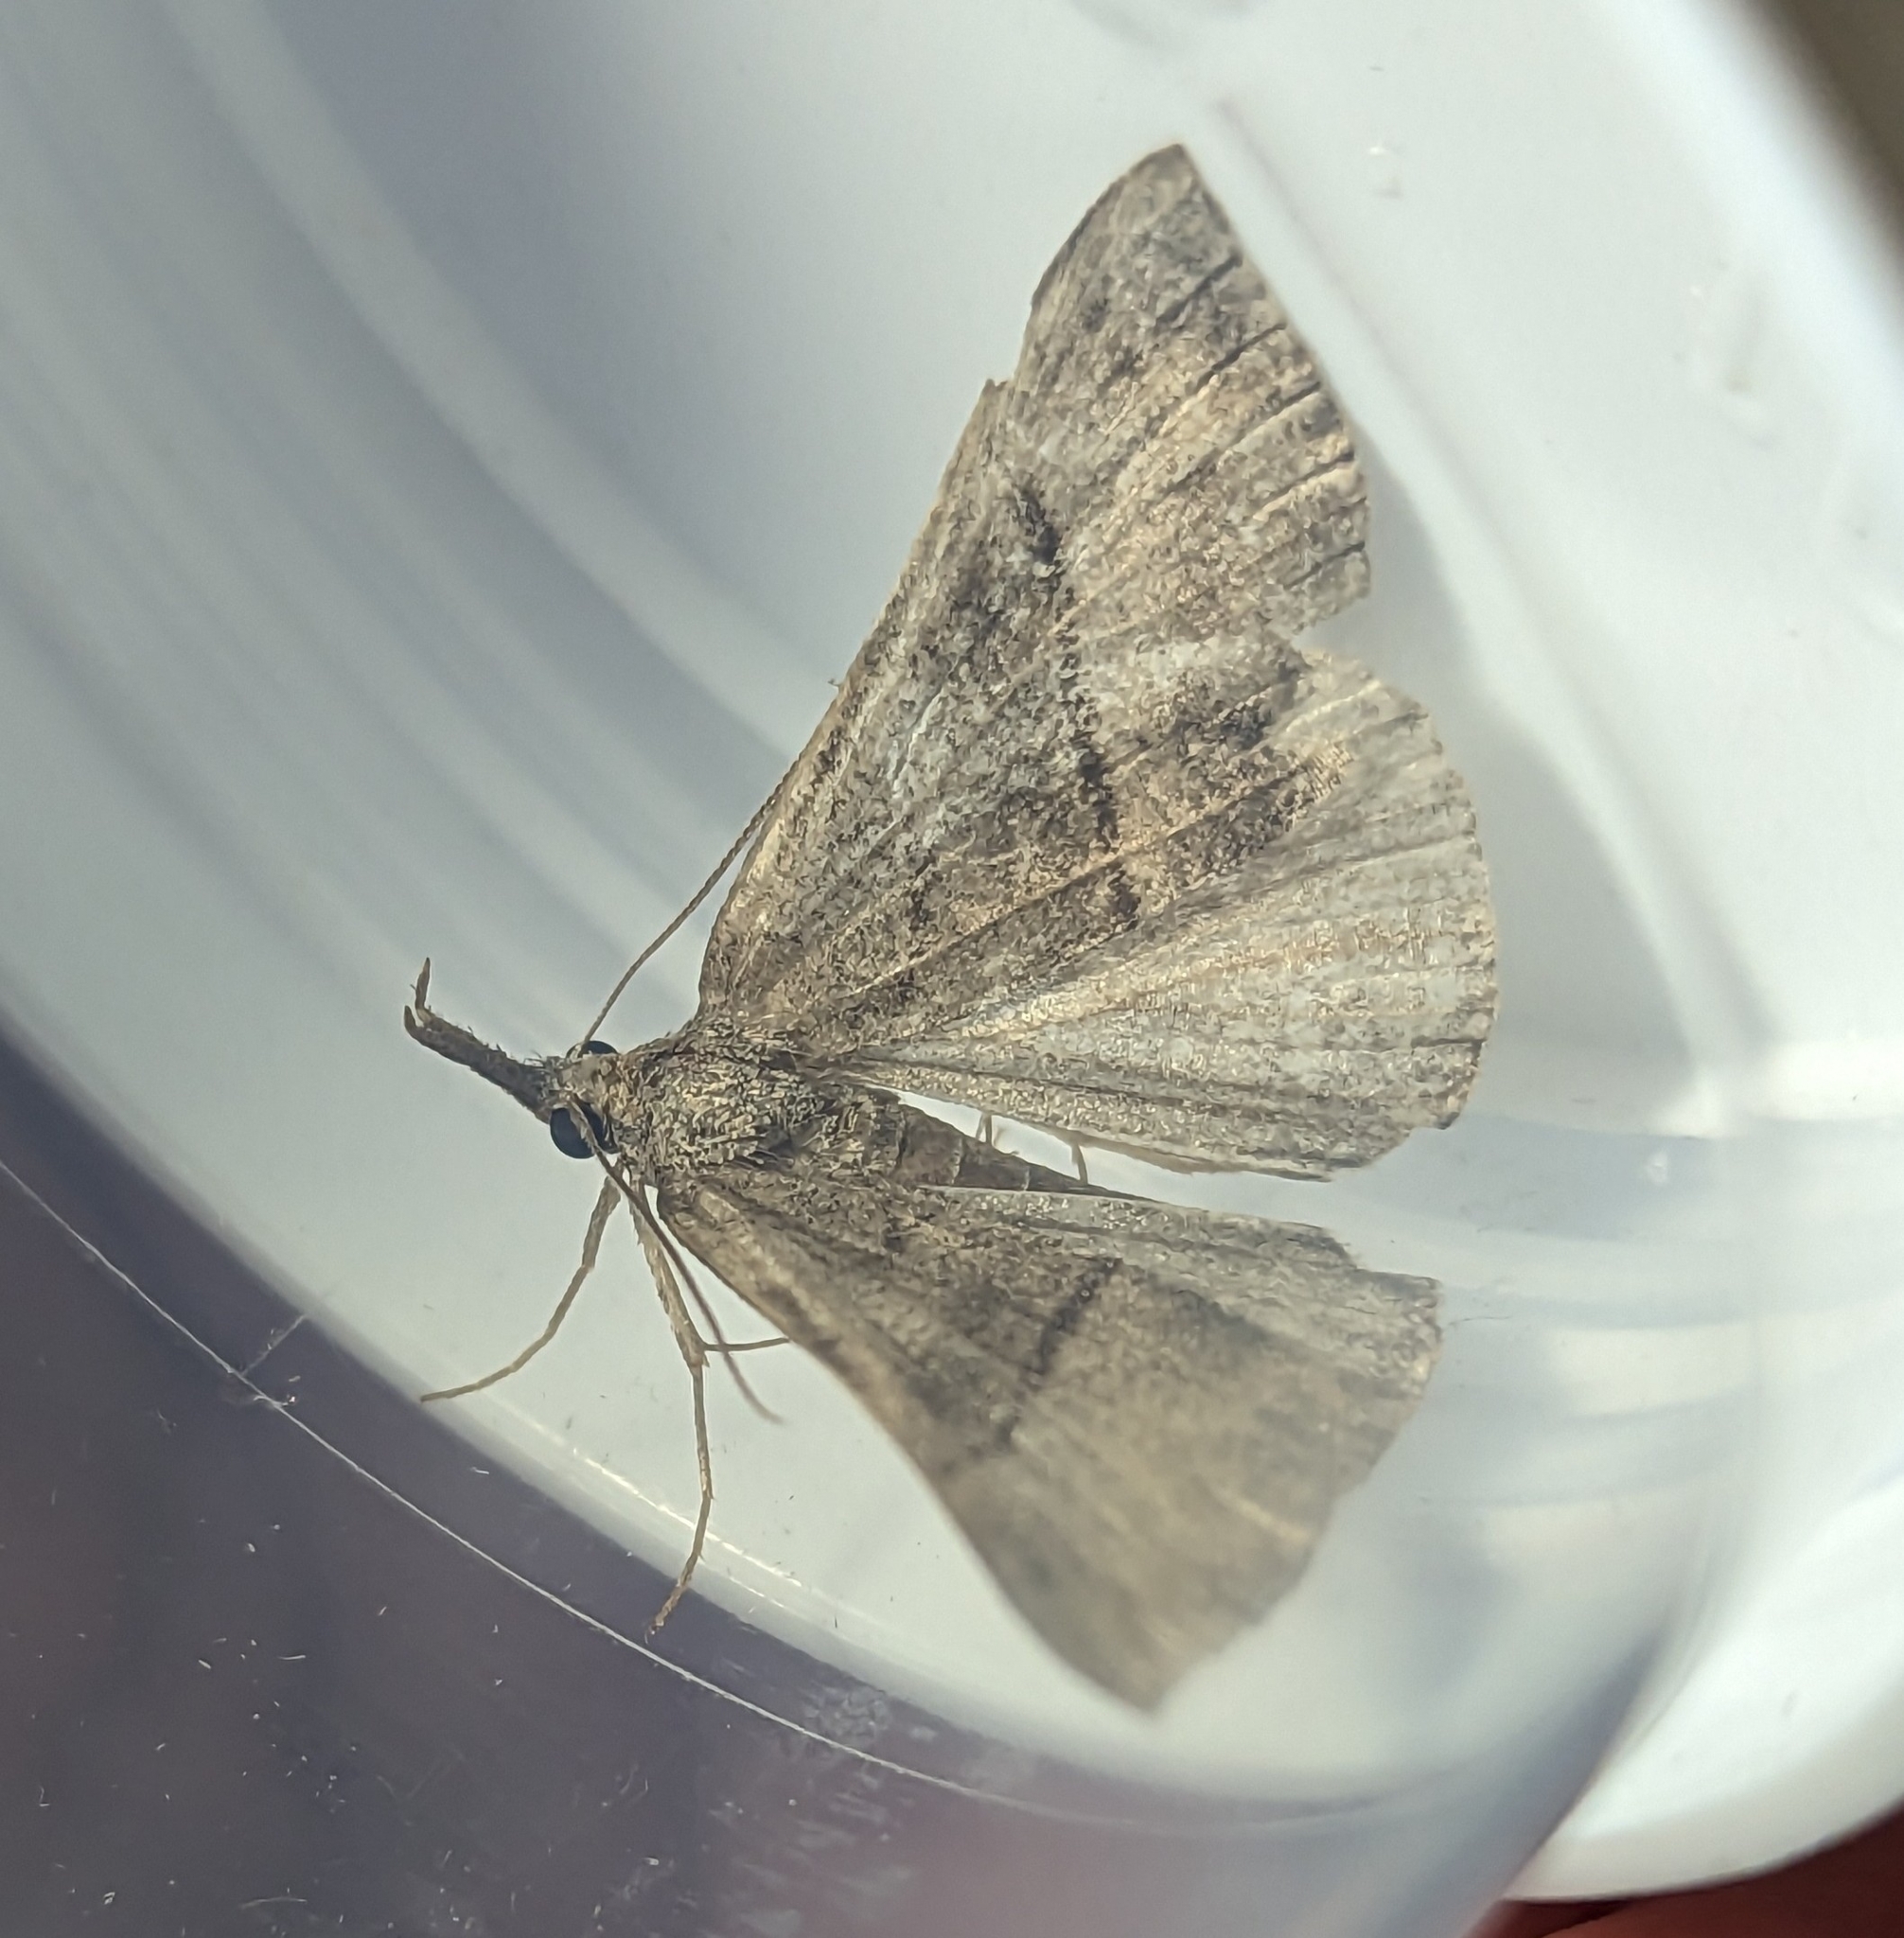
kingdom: Animalia
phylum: Arthropoda
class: Insecta
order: Lepidoptera
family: Erebidae
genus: Hypena
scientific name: Hypena proboscidalis
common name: Snout
